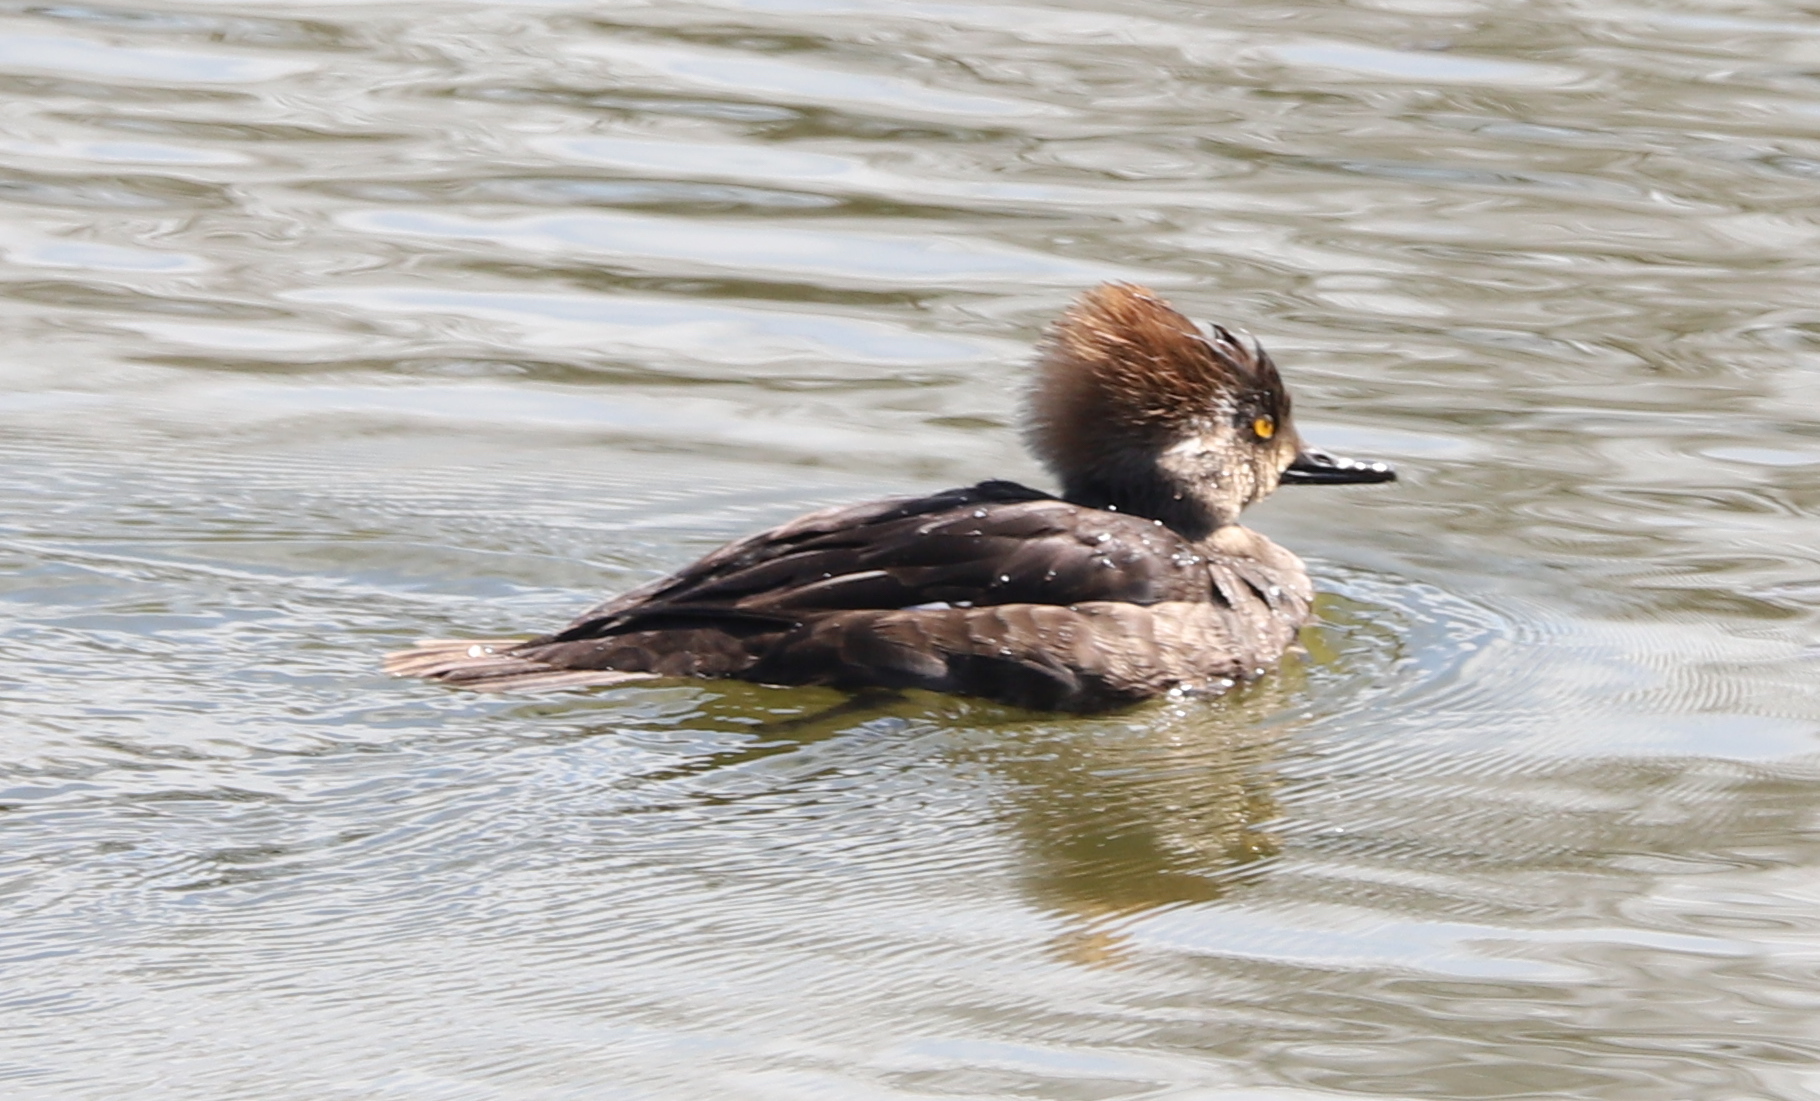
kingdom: Animalia
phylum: Chordata
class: Aves
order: Anseriformes
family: Anatidae
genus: Lophodytes
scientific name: Lophodytes cucullatus
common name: Hooded merganser
